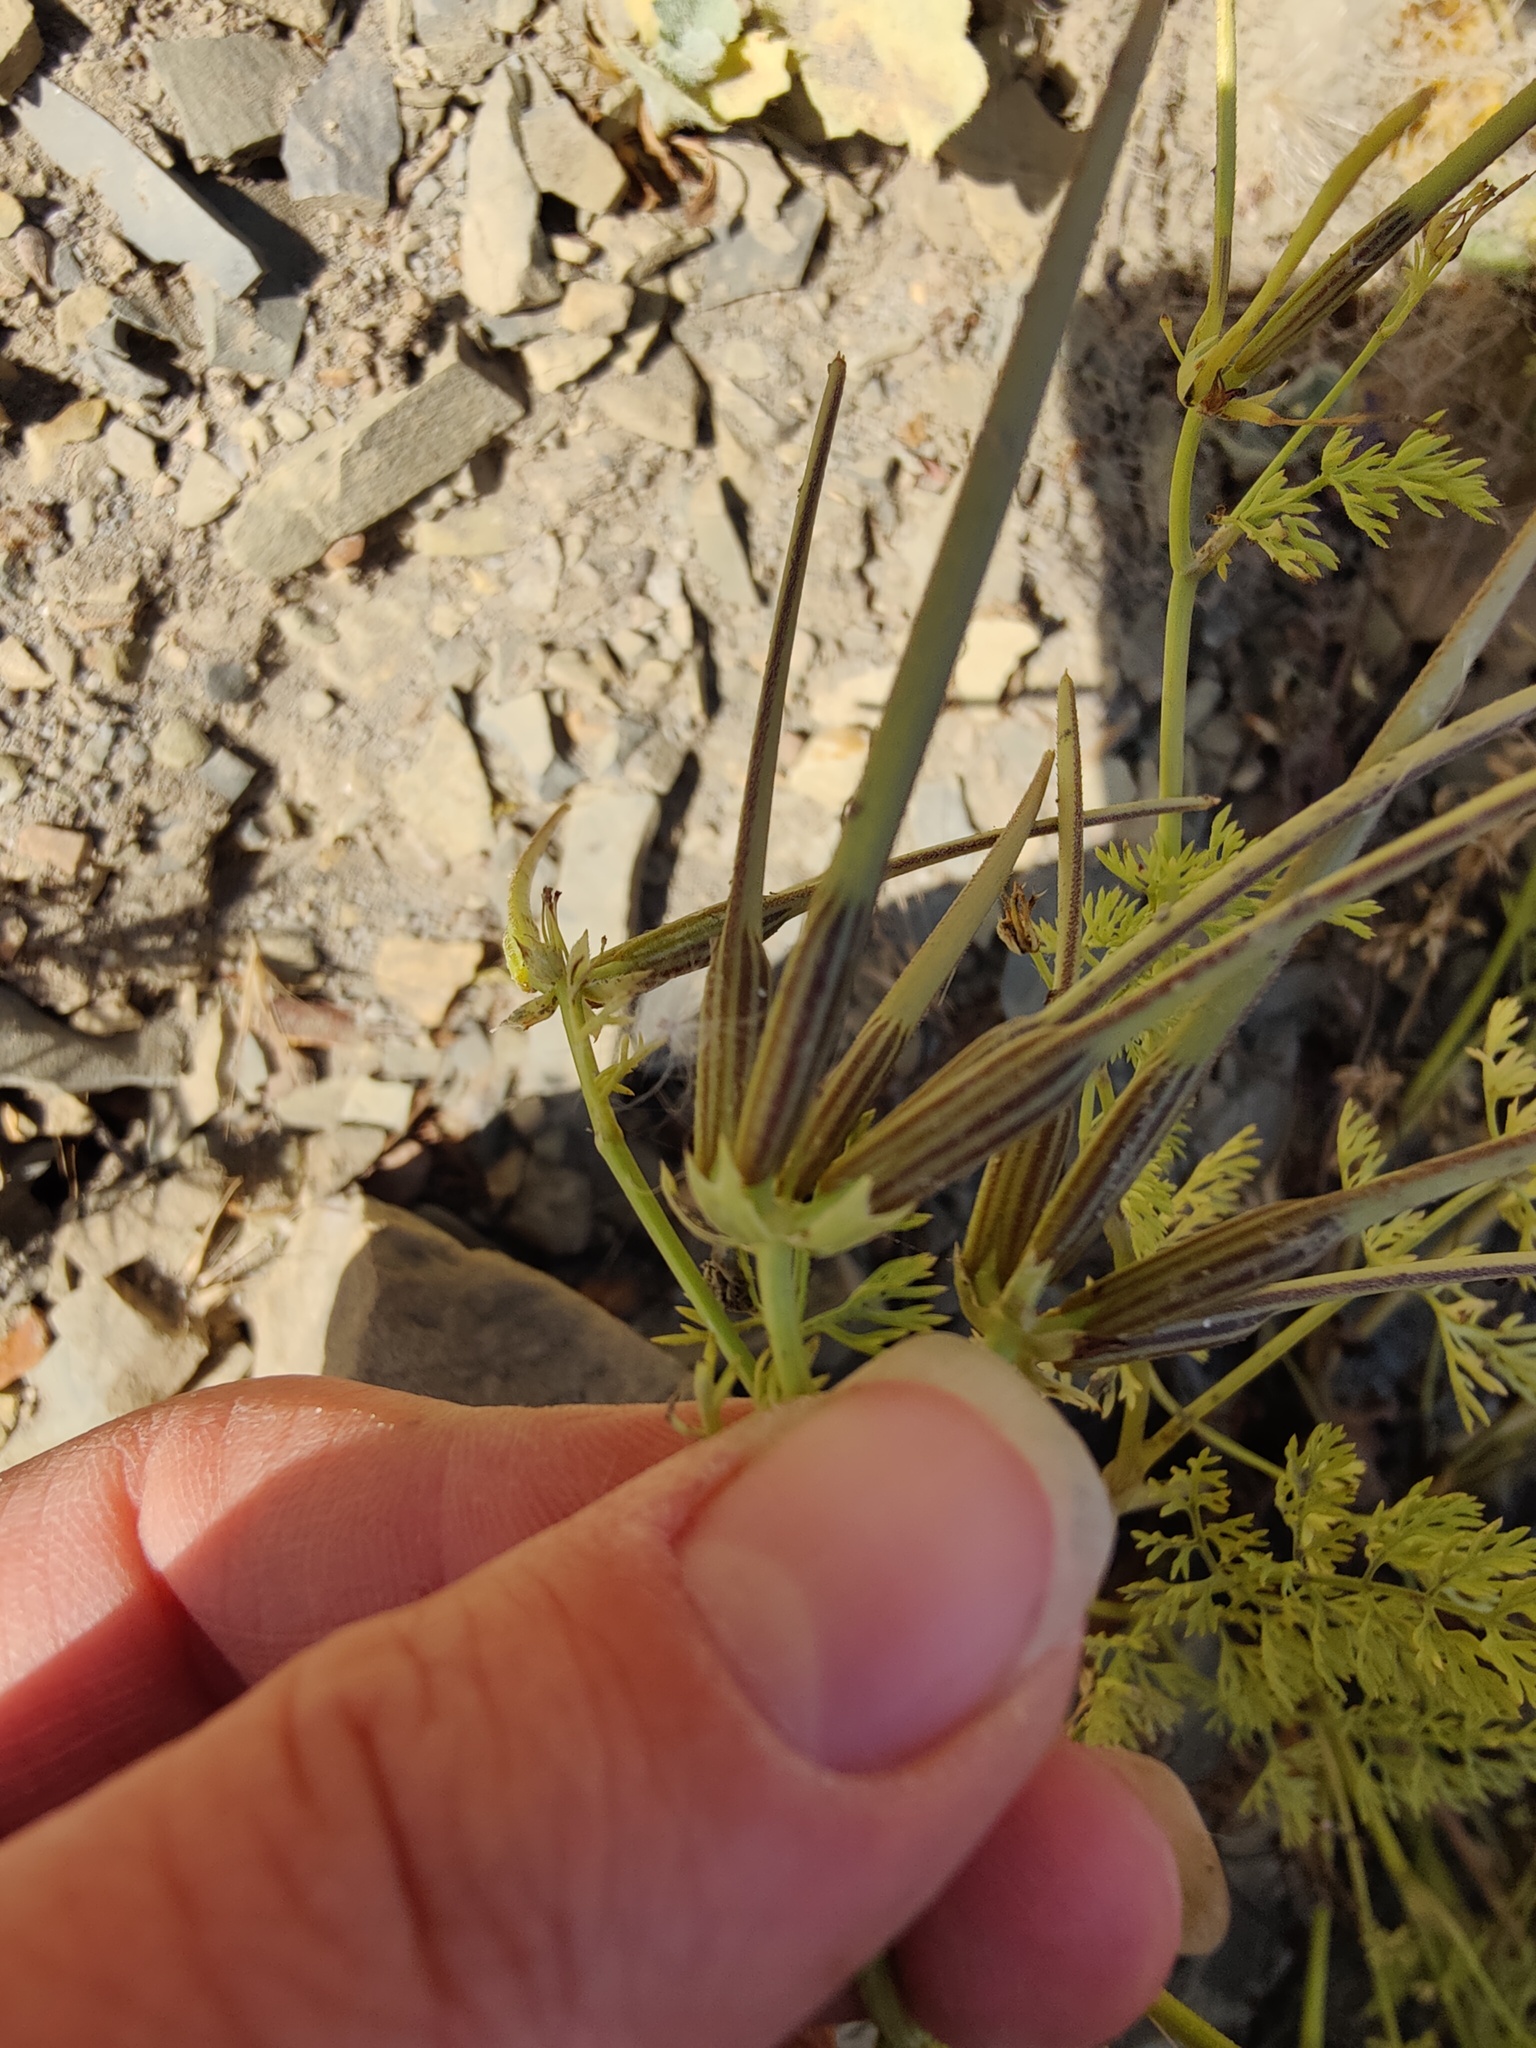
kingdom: Plantae
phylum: Tracheophyta
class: Magnoliopsida
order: Apiales
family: Apiaceae
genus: Scandix
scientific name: Scandix pecten-veneris
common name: Shepherd's-needle
